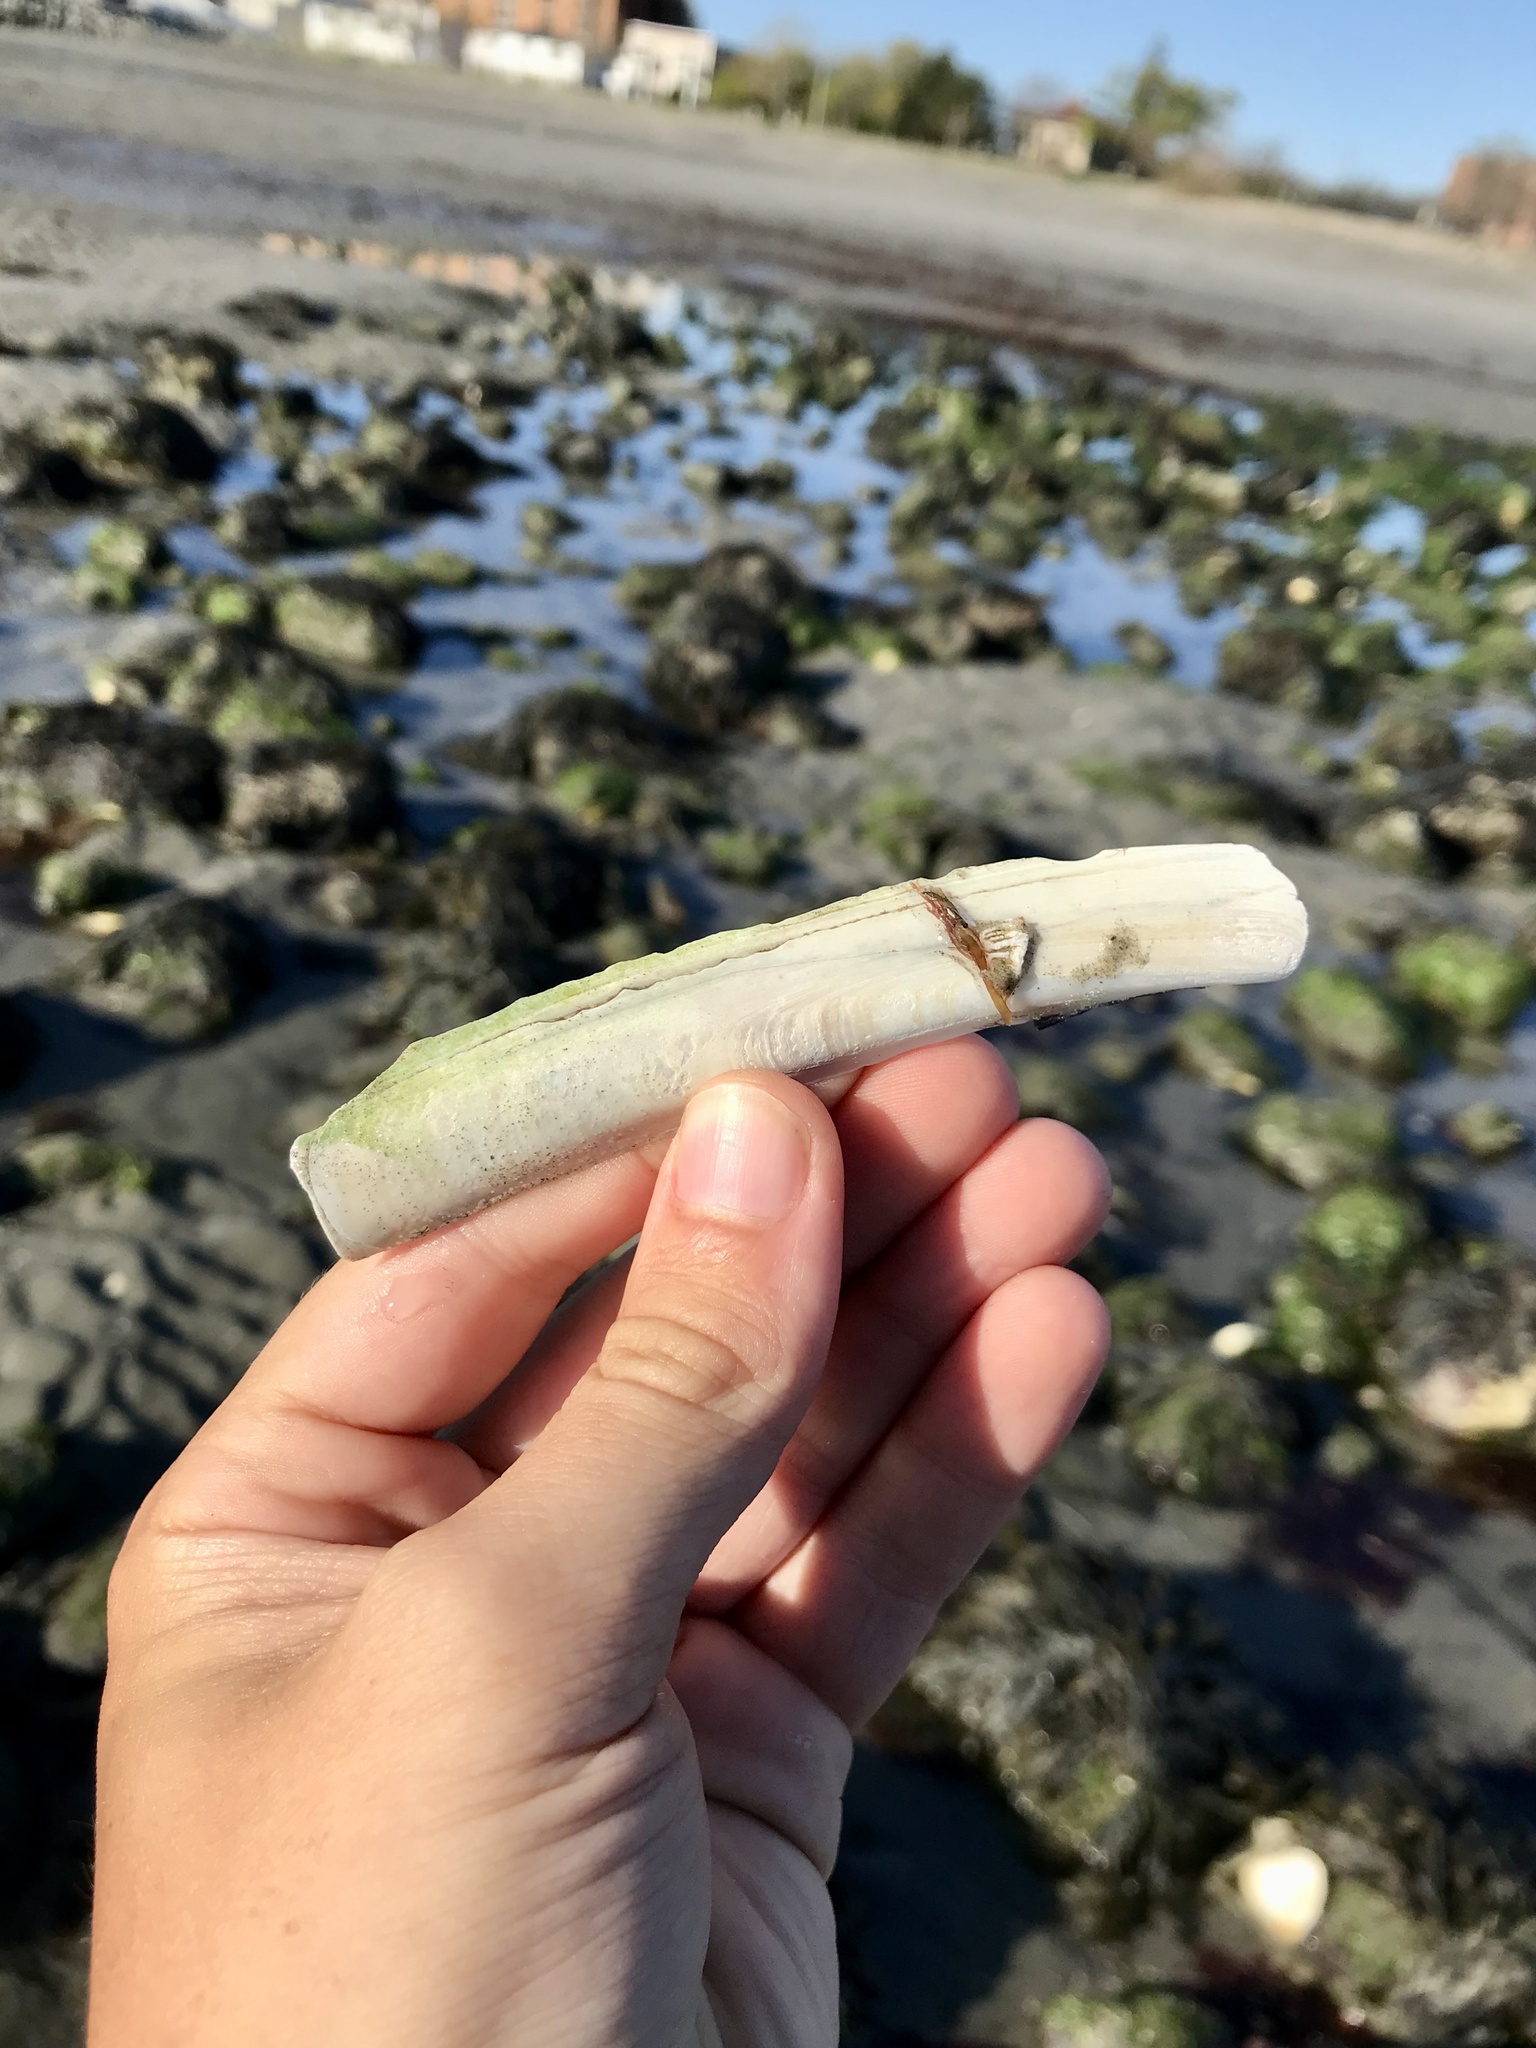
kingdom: Animalia
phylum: Mollusca
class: Bivalvia
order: Adapedonta
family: Pharidae
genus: Ensis
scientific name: Ensis leei
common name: American jack knife clam
